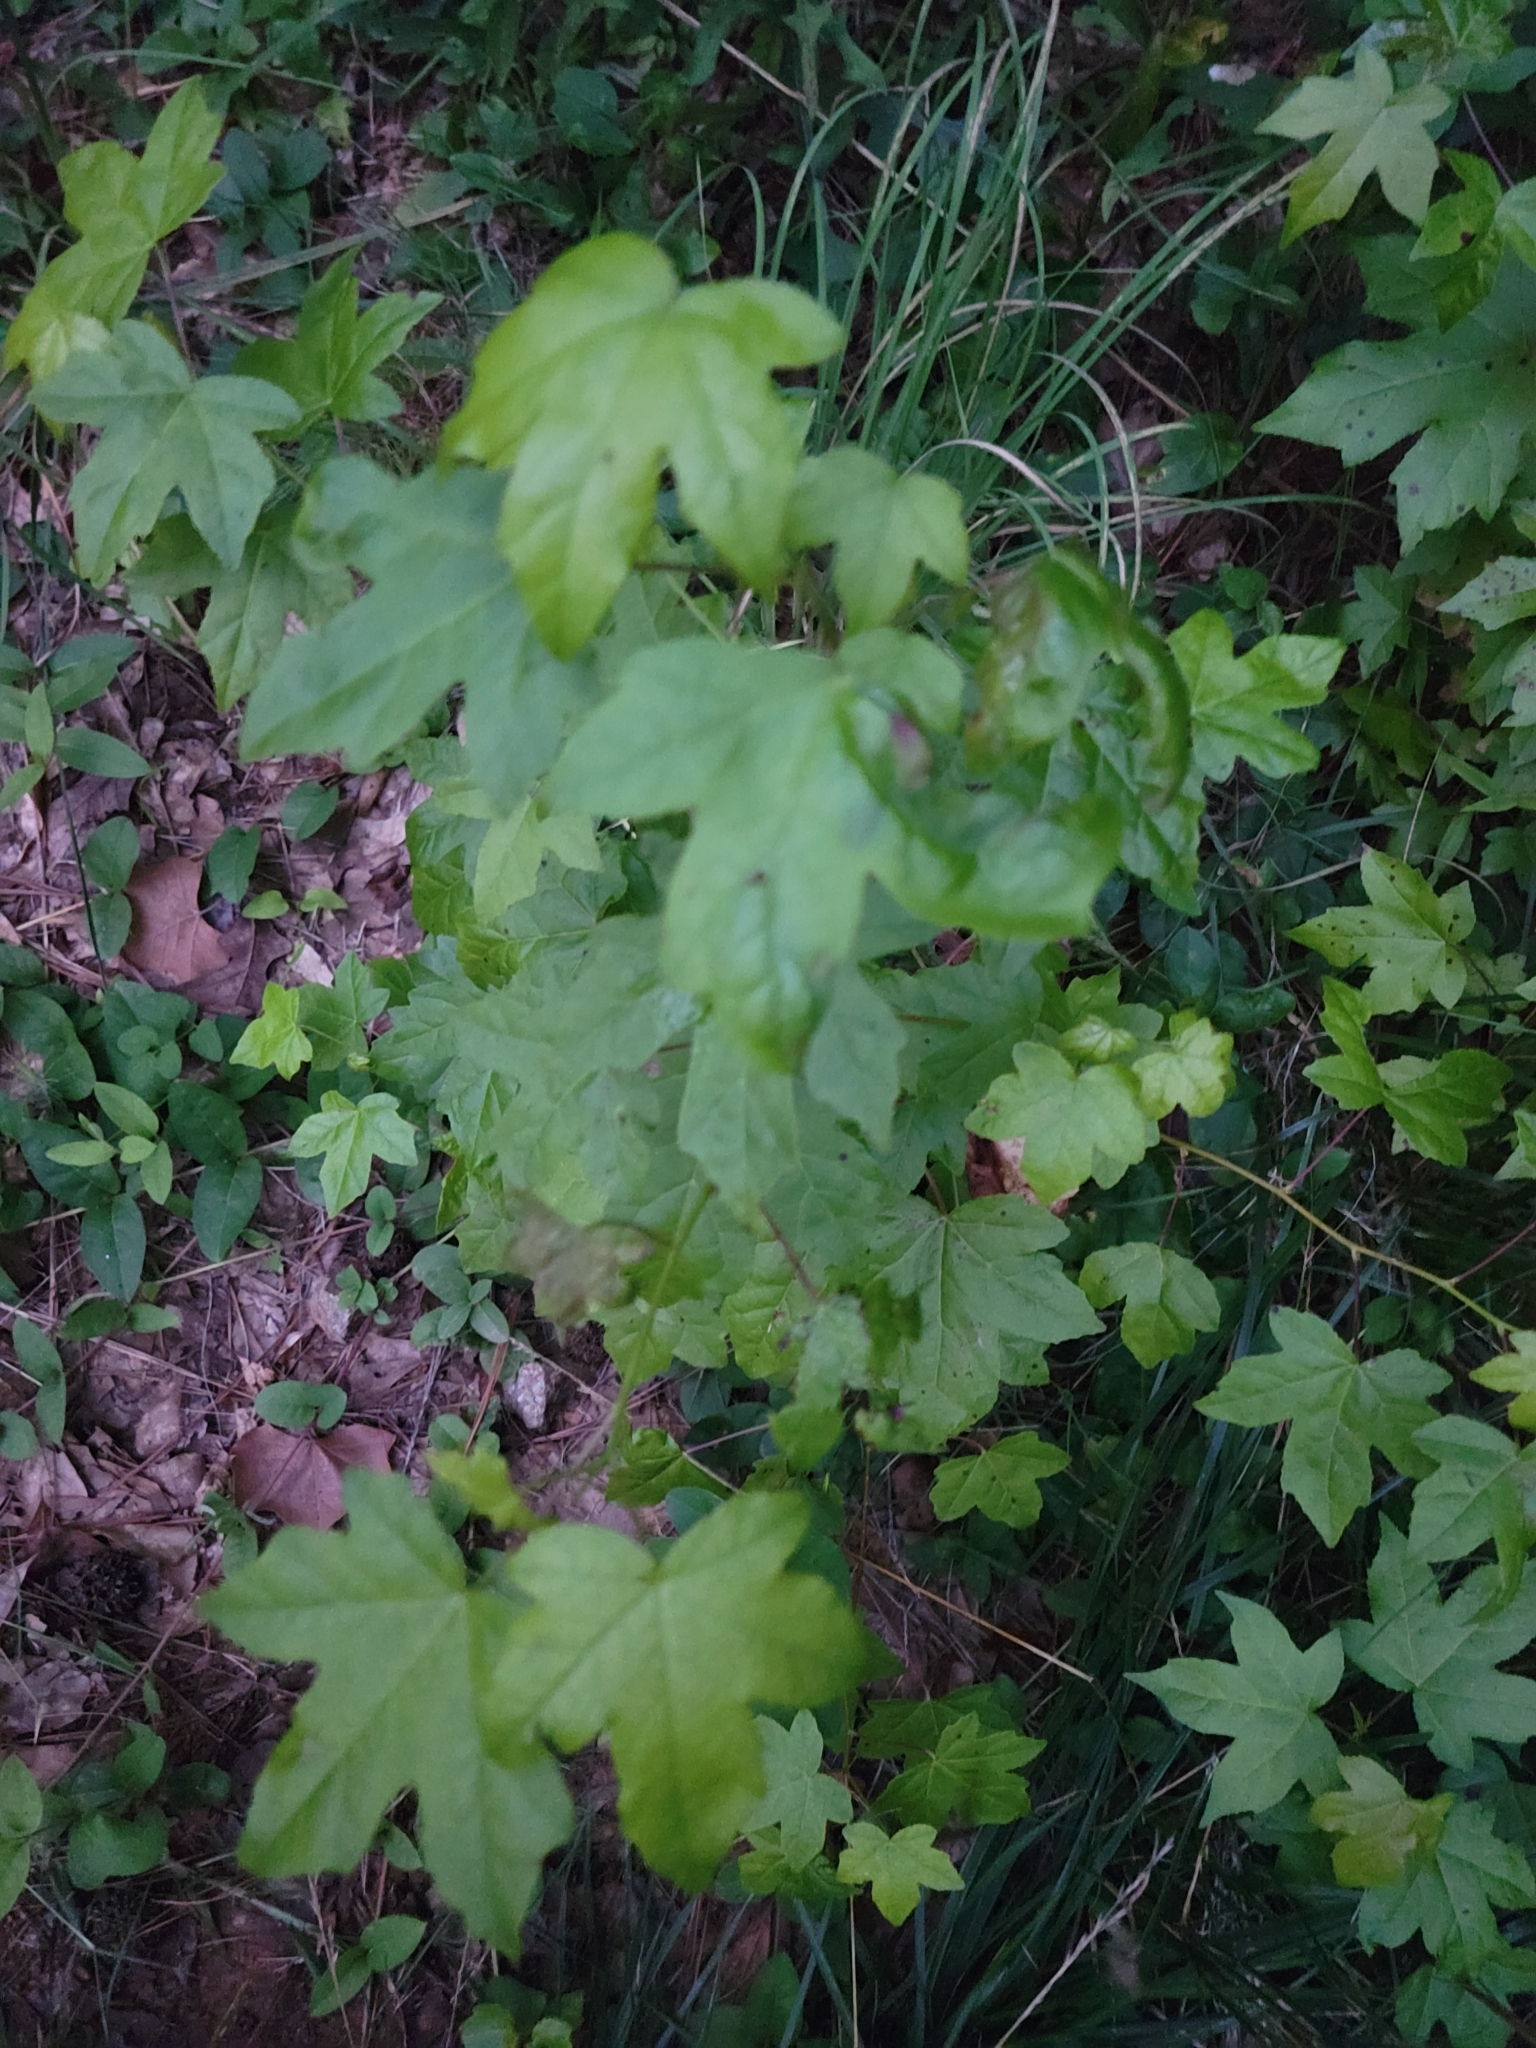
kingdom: Plantae
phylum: Tracheophyta
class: Magnoliopsida
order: Saxifragales
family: Altingiaceae
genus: Liquidambar
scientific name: Liquidambar styraciflua
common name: Sweet gum
